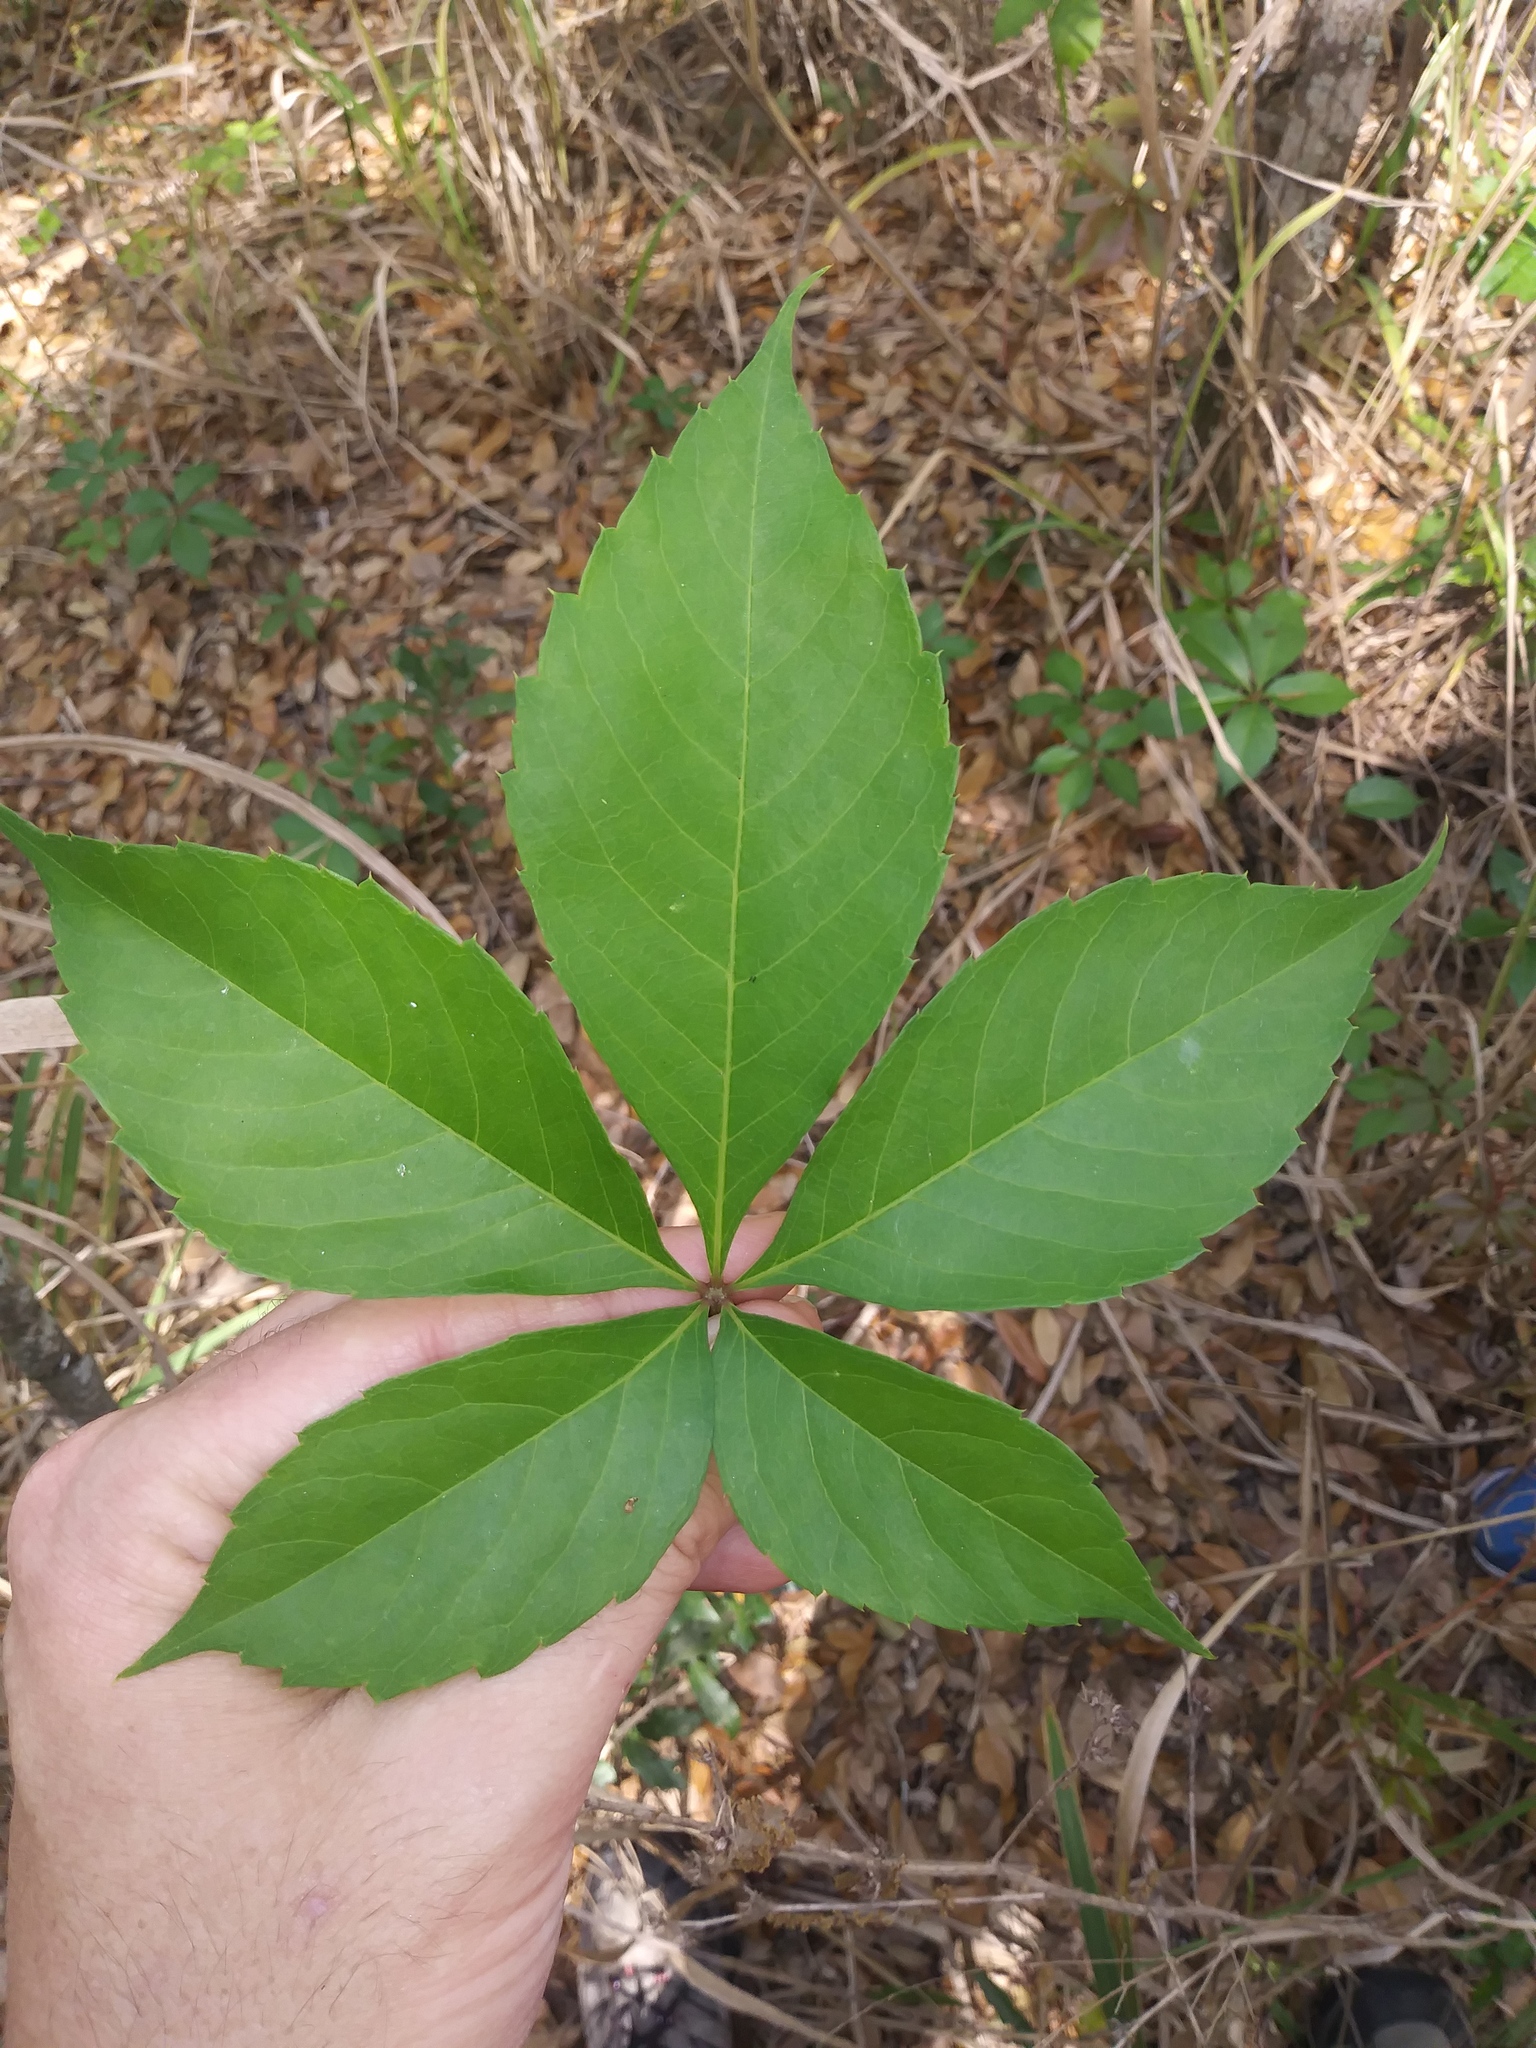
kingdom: Plantae
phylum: Tracheophyta
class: Magnoliopsida
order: Vitales
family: Vitaceae
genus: Parthenocissus
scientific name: Parthenocissus quinquefolia
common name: Virginia-creeper
